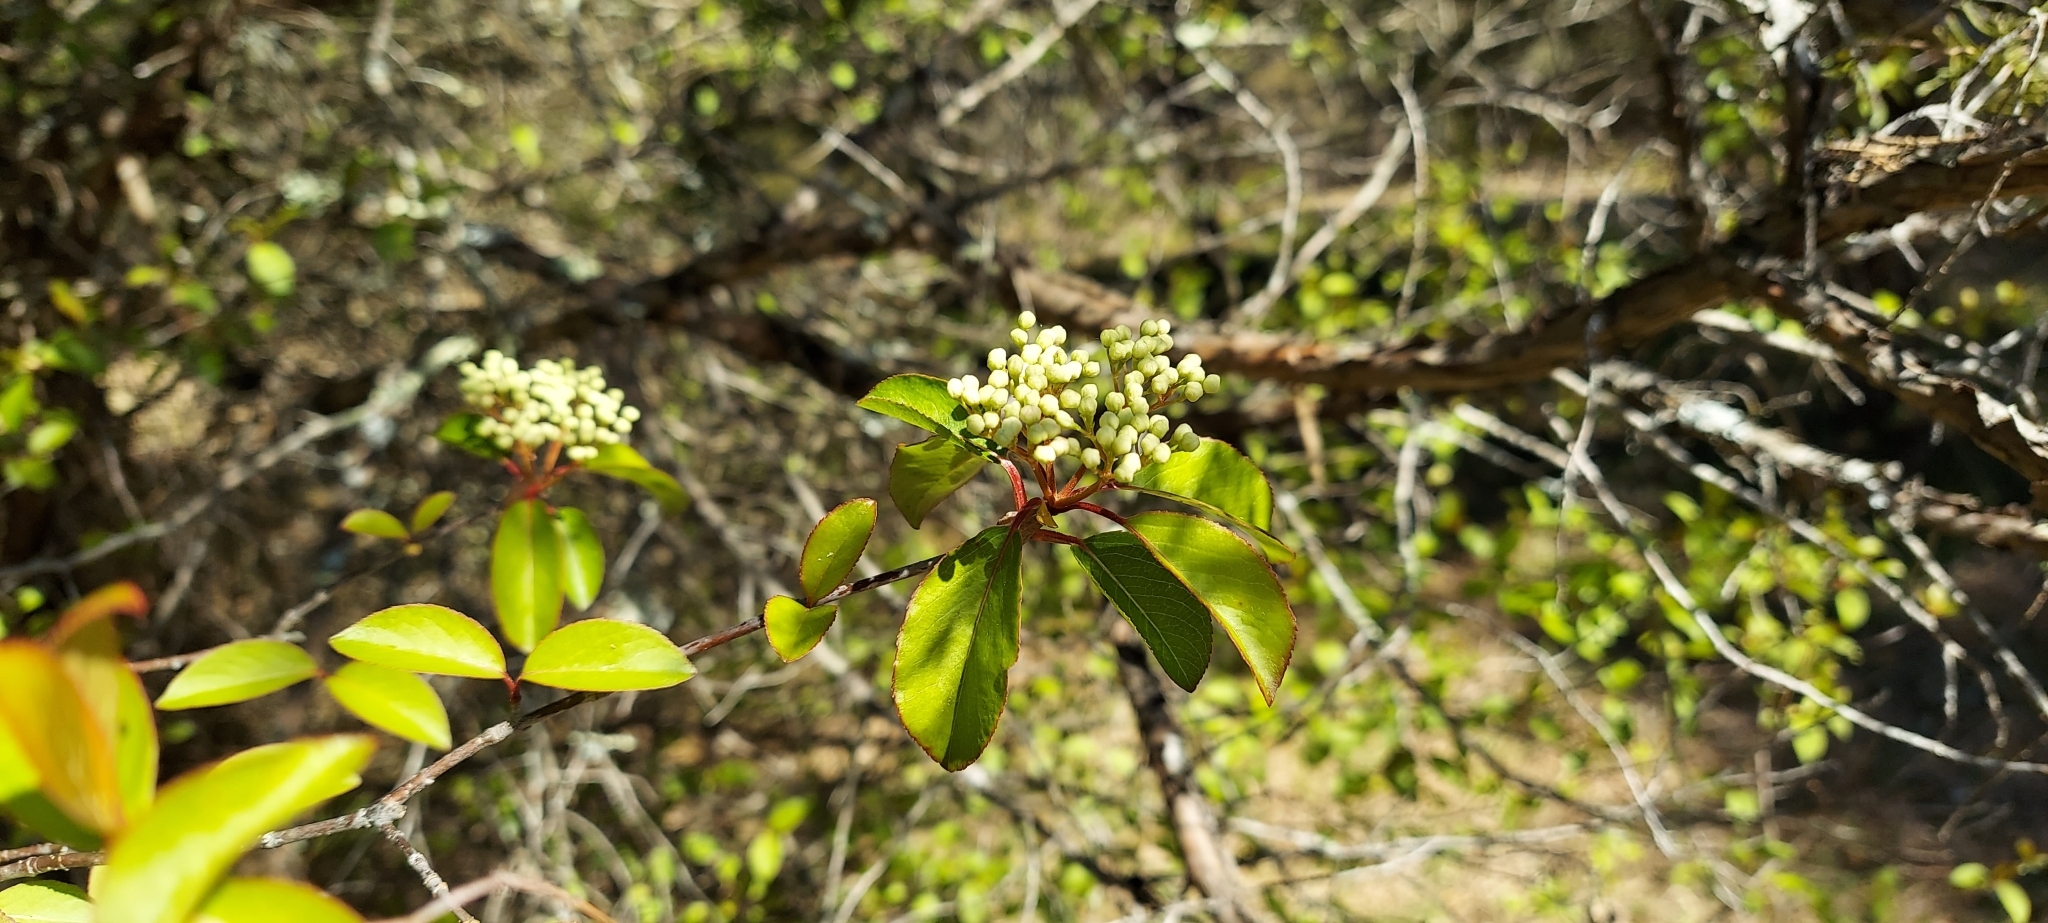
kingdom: Plantae
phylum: Tracheophyta
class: Magnoliopsida
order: Dipsacales
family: Viburnaceae
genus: Viburnum
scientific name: Viburnum prunifolium
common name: Black haw
